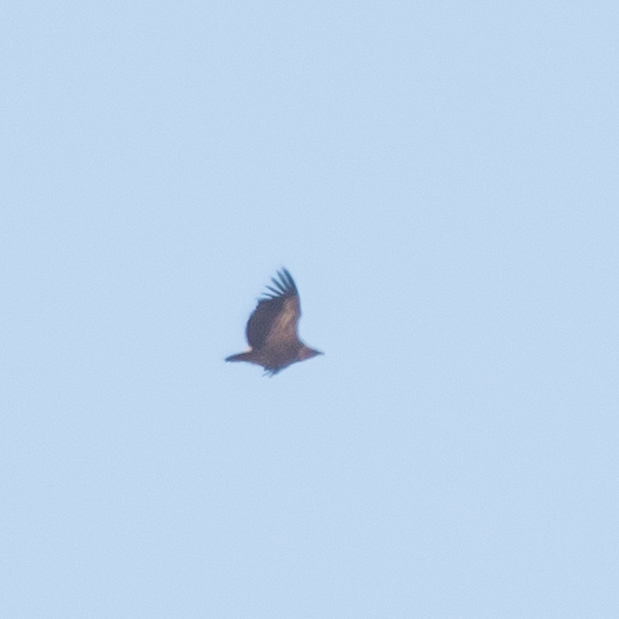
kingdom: Animalia
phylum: Chordata
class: Aves
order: Accipitriformes
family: Accipitridae
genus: Gyps
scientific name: Gyps fulvus
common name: Griffon vulture
